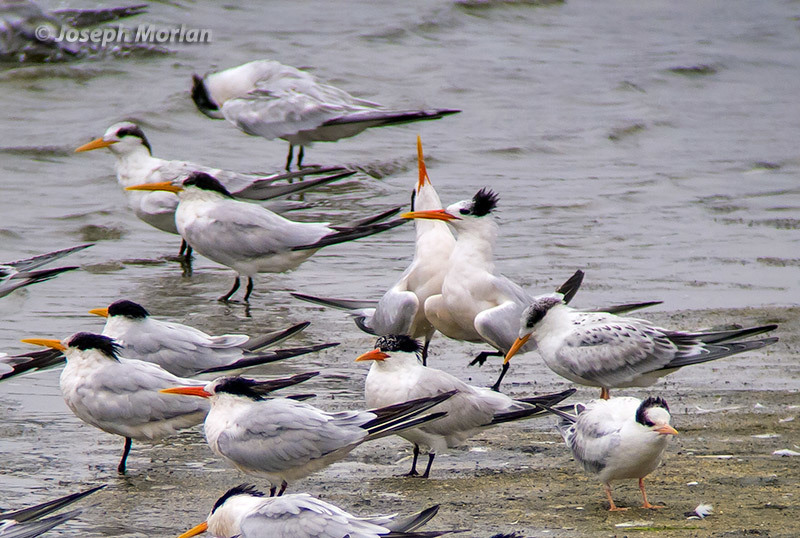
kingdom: Animalia
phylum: Chordata
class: Aves
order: Charadriiformes
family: Laridae
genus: Thalasseus
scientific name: Thalasseus elegans
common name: Elegant tern
